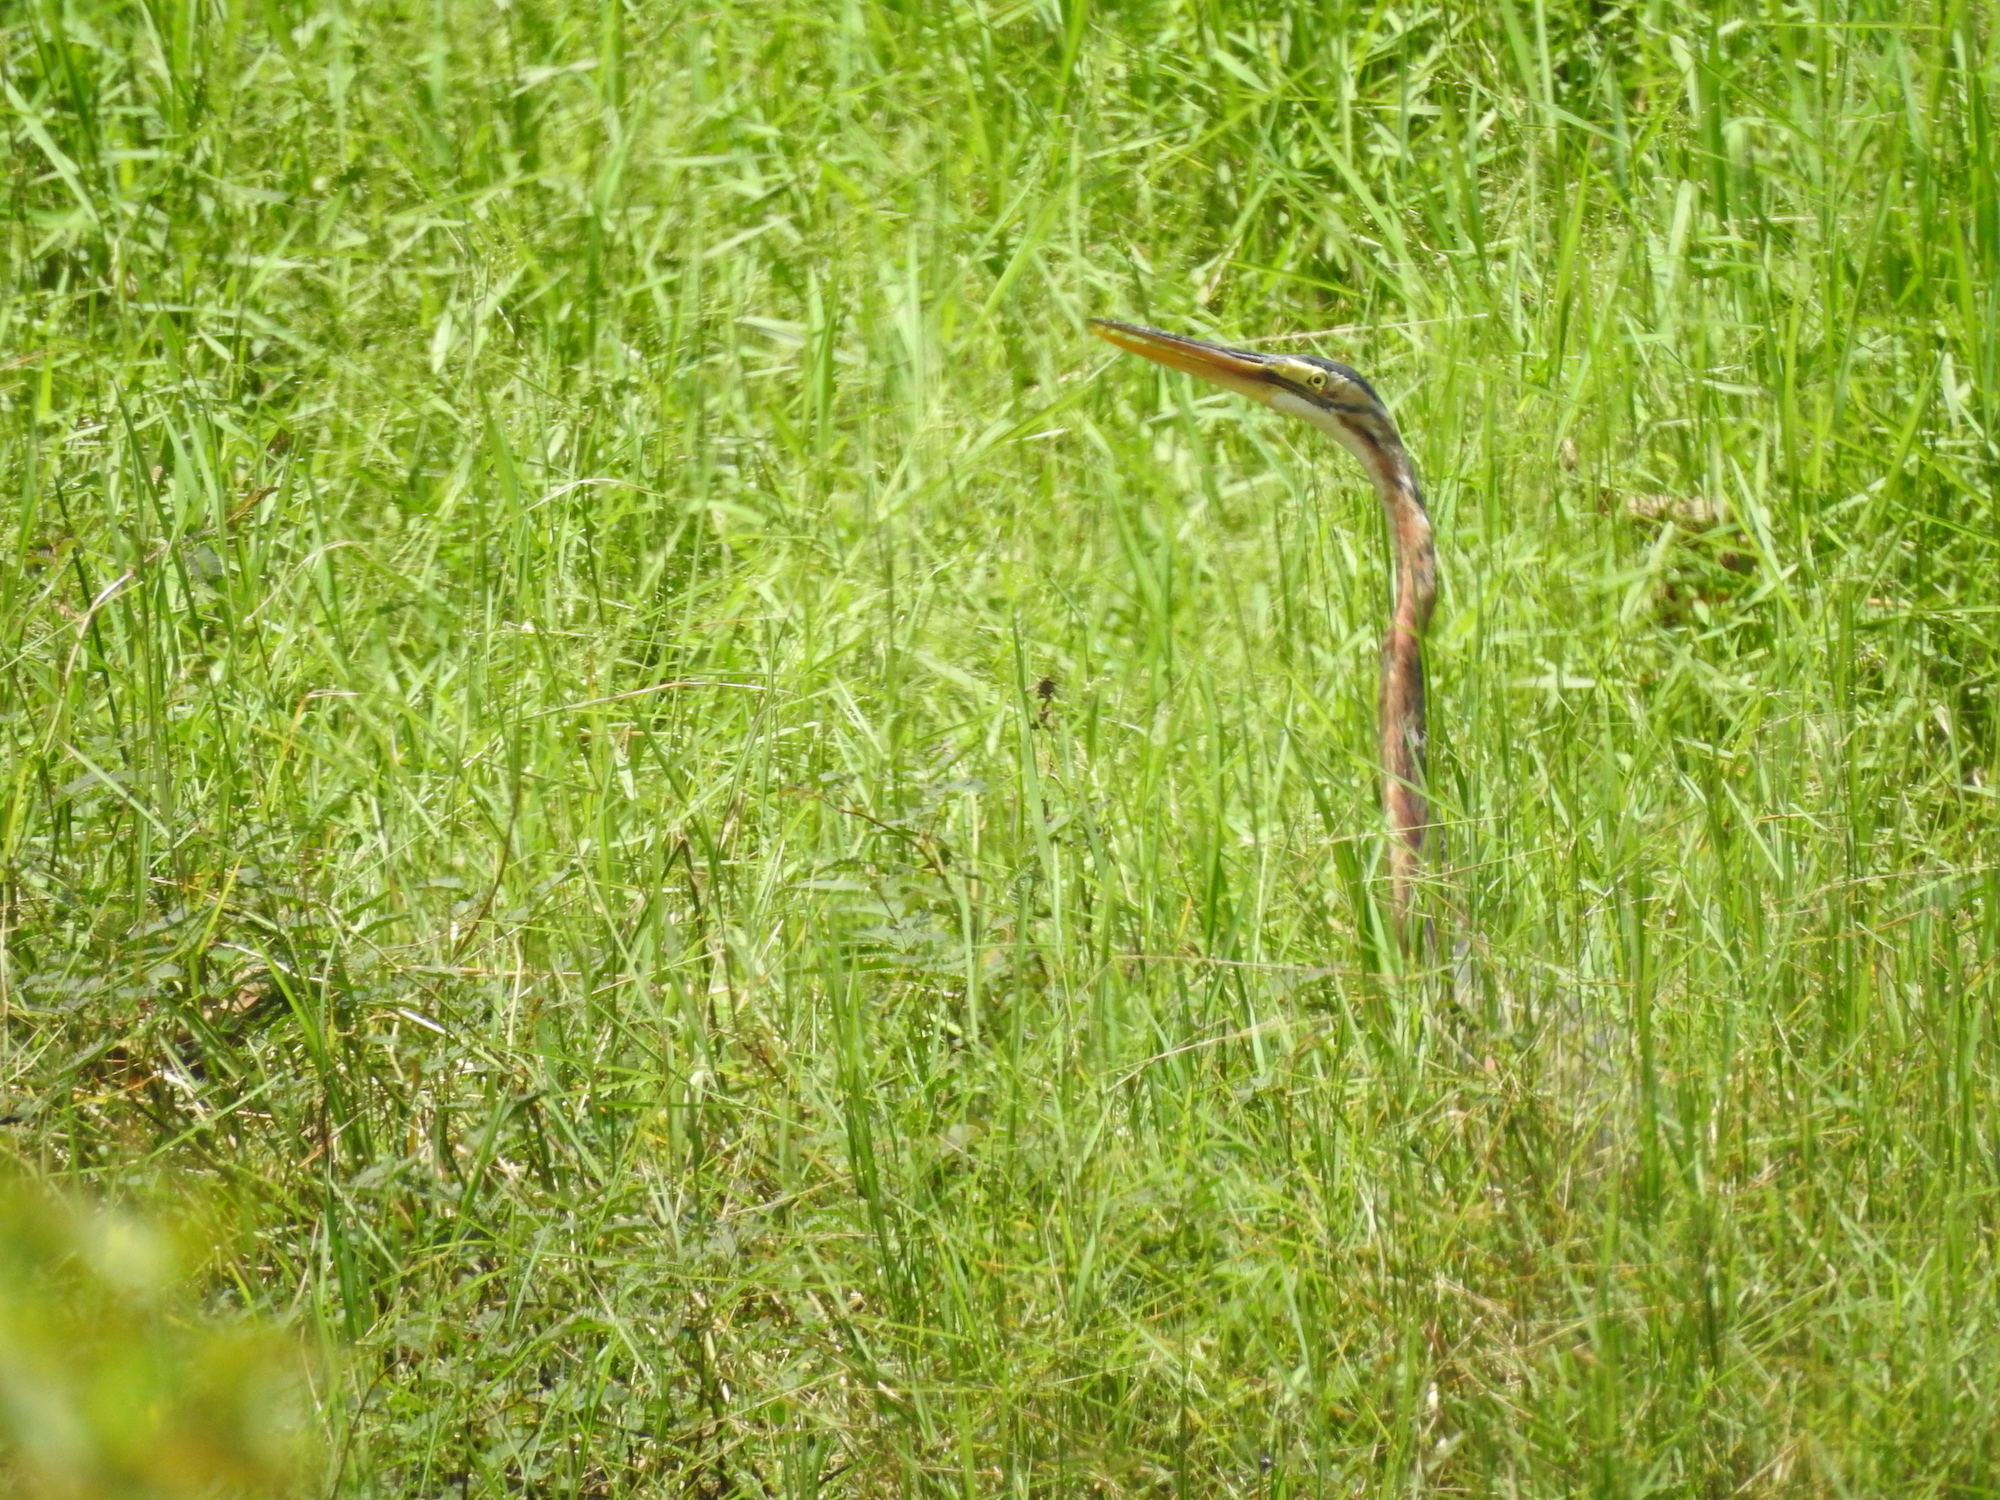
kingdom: Animalia
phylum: Chordata
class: Aves
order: Pelecaniformes
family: Ardeidae
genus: Ardea
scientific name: Ardea purpurea
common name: Purple heron
